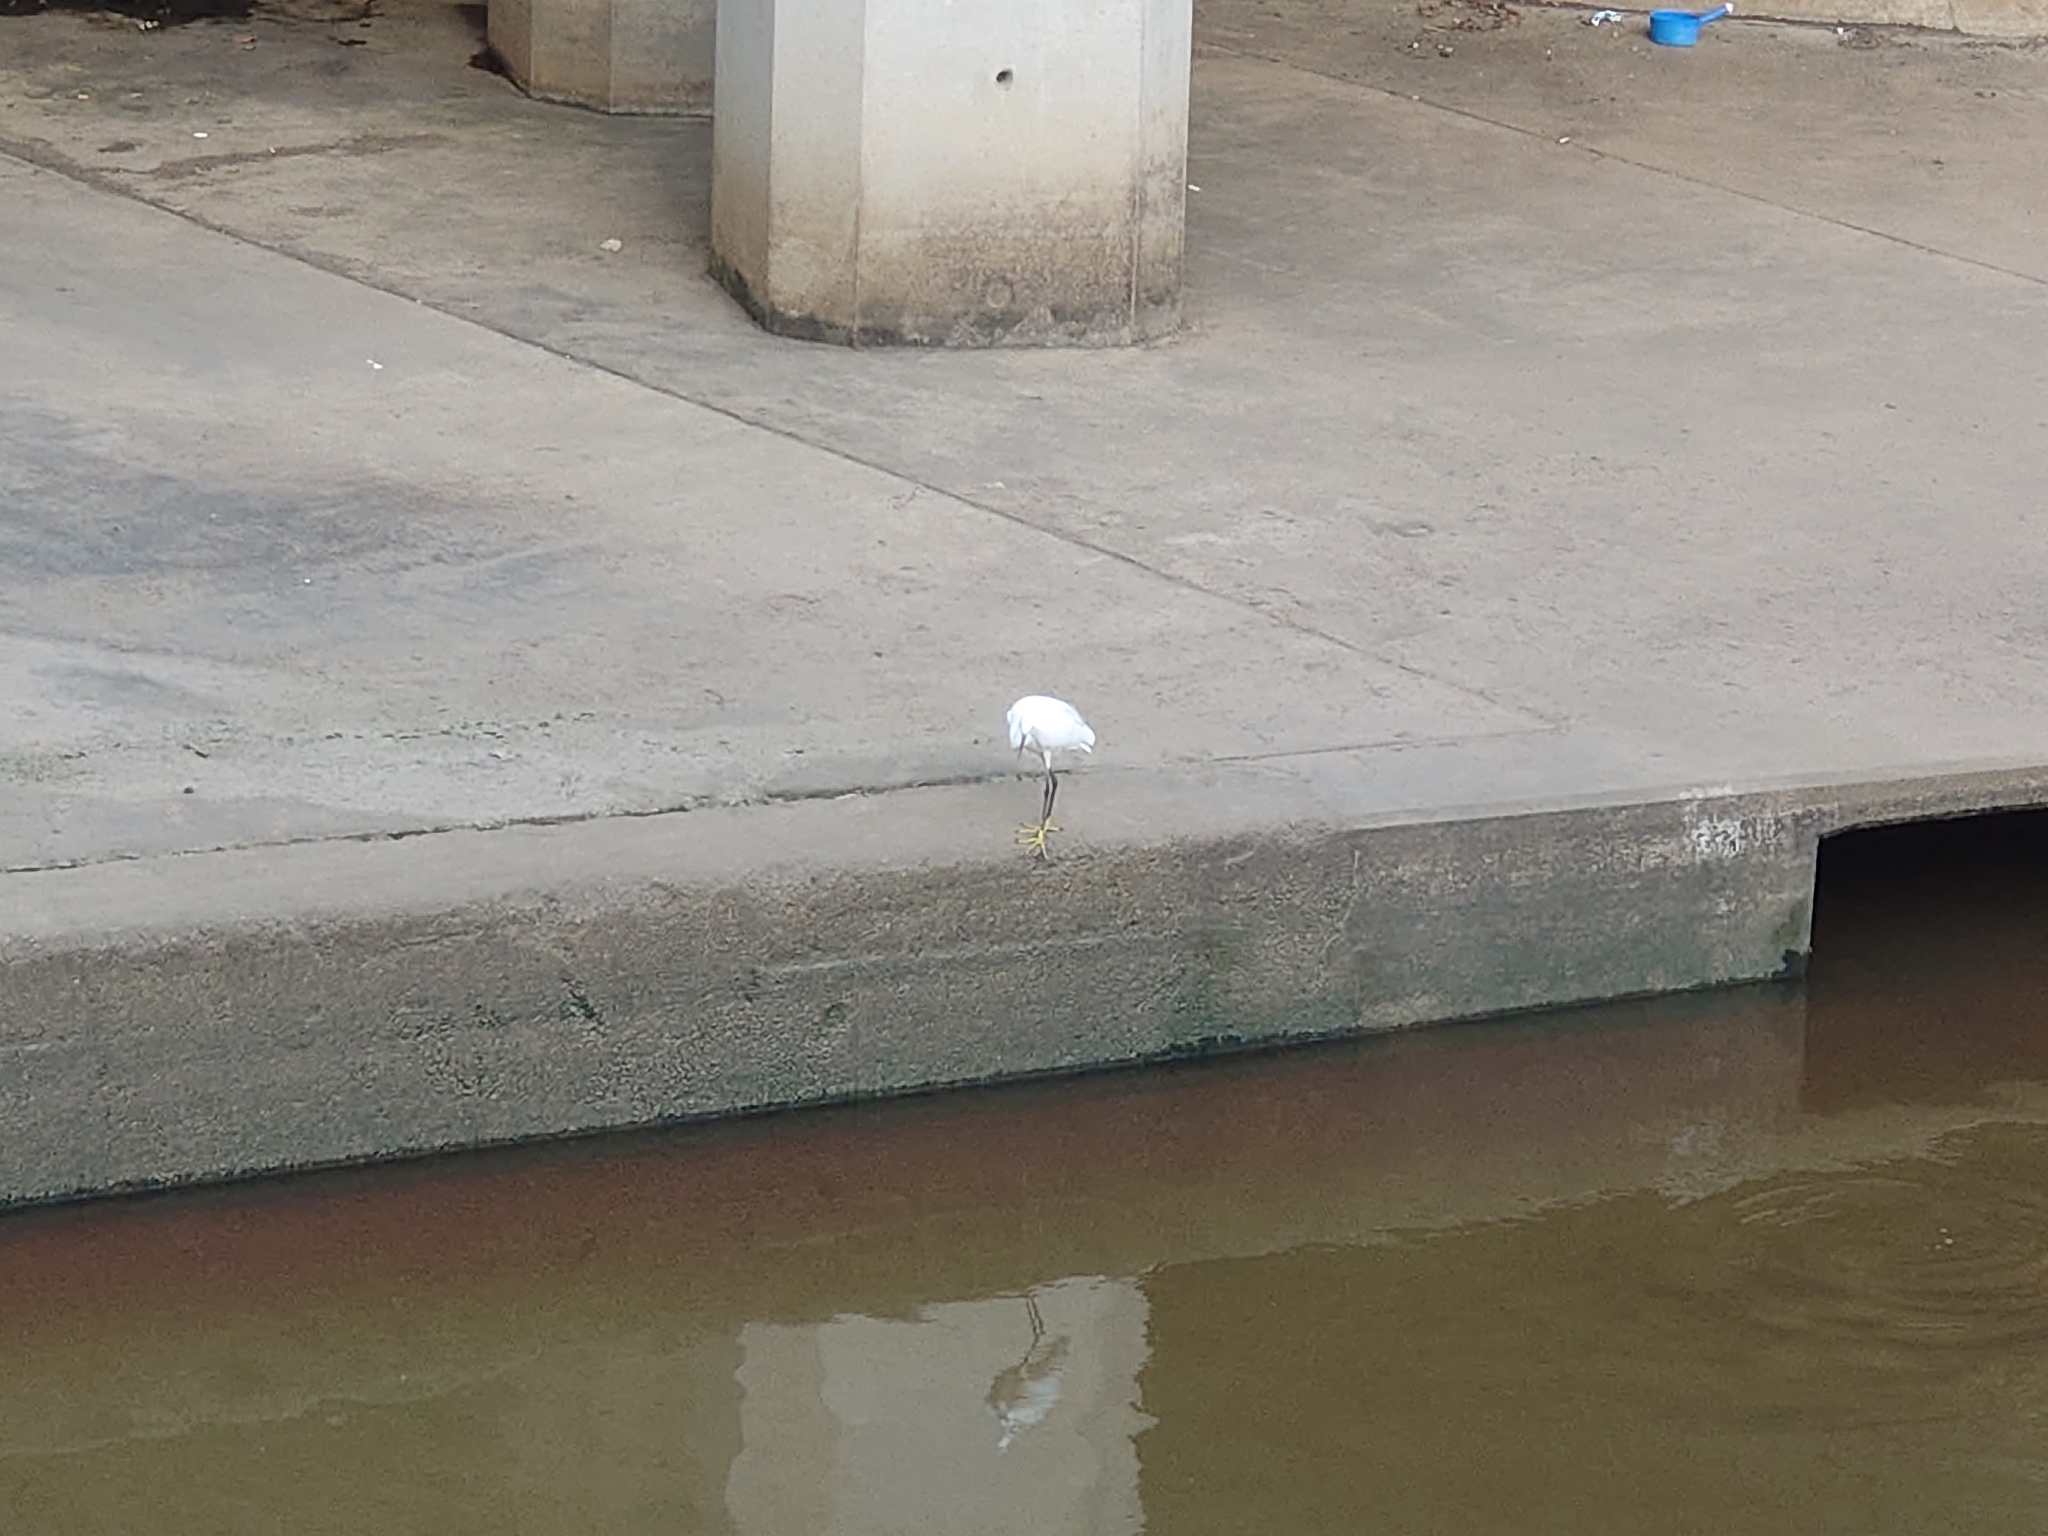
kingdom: Animalia
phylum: Chordata
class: Aves
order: Pelecaniformes
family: Ardeidae
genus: Egretta
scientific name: Egretta garzetta
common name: Little egret
